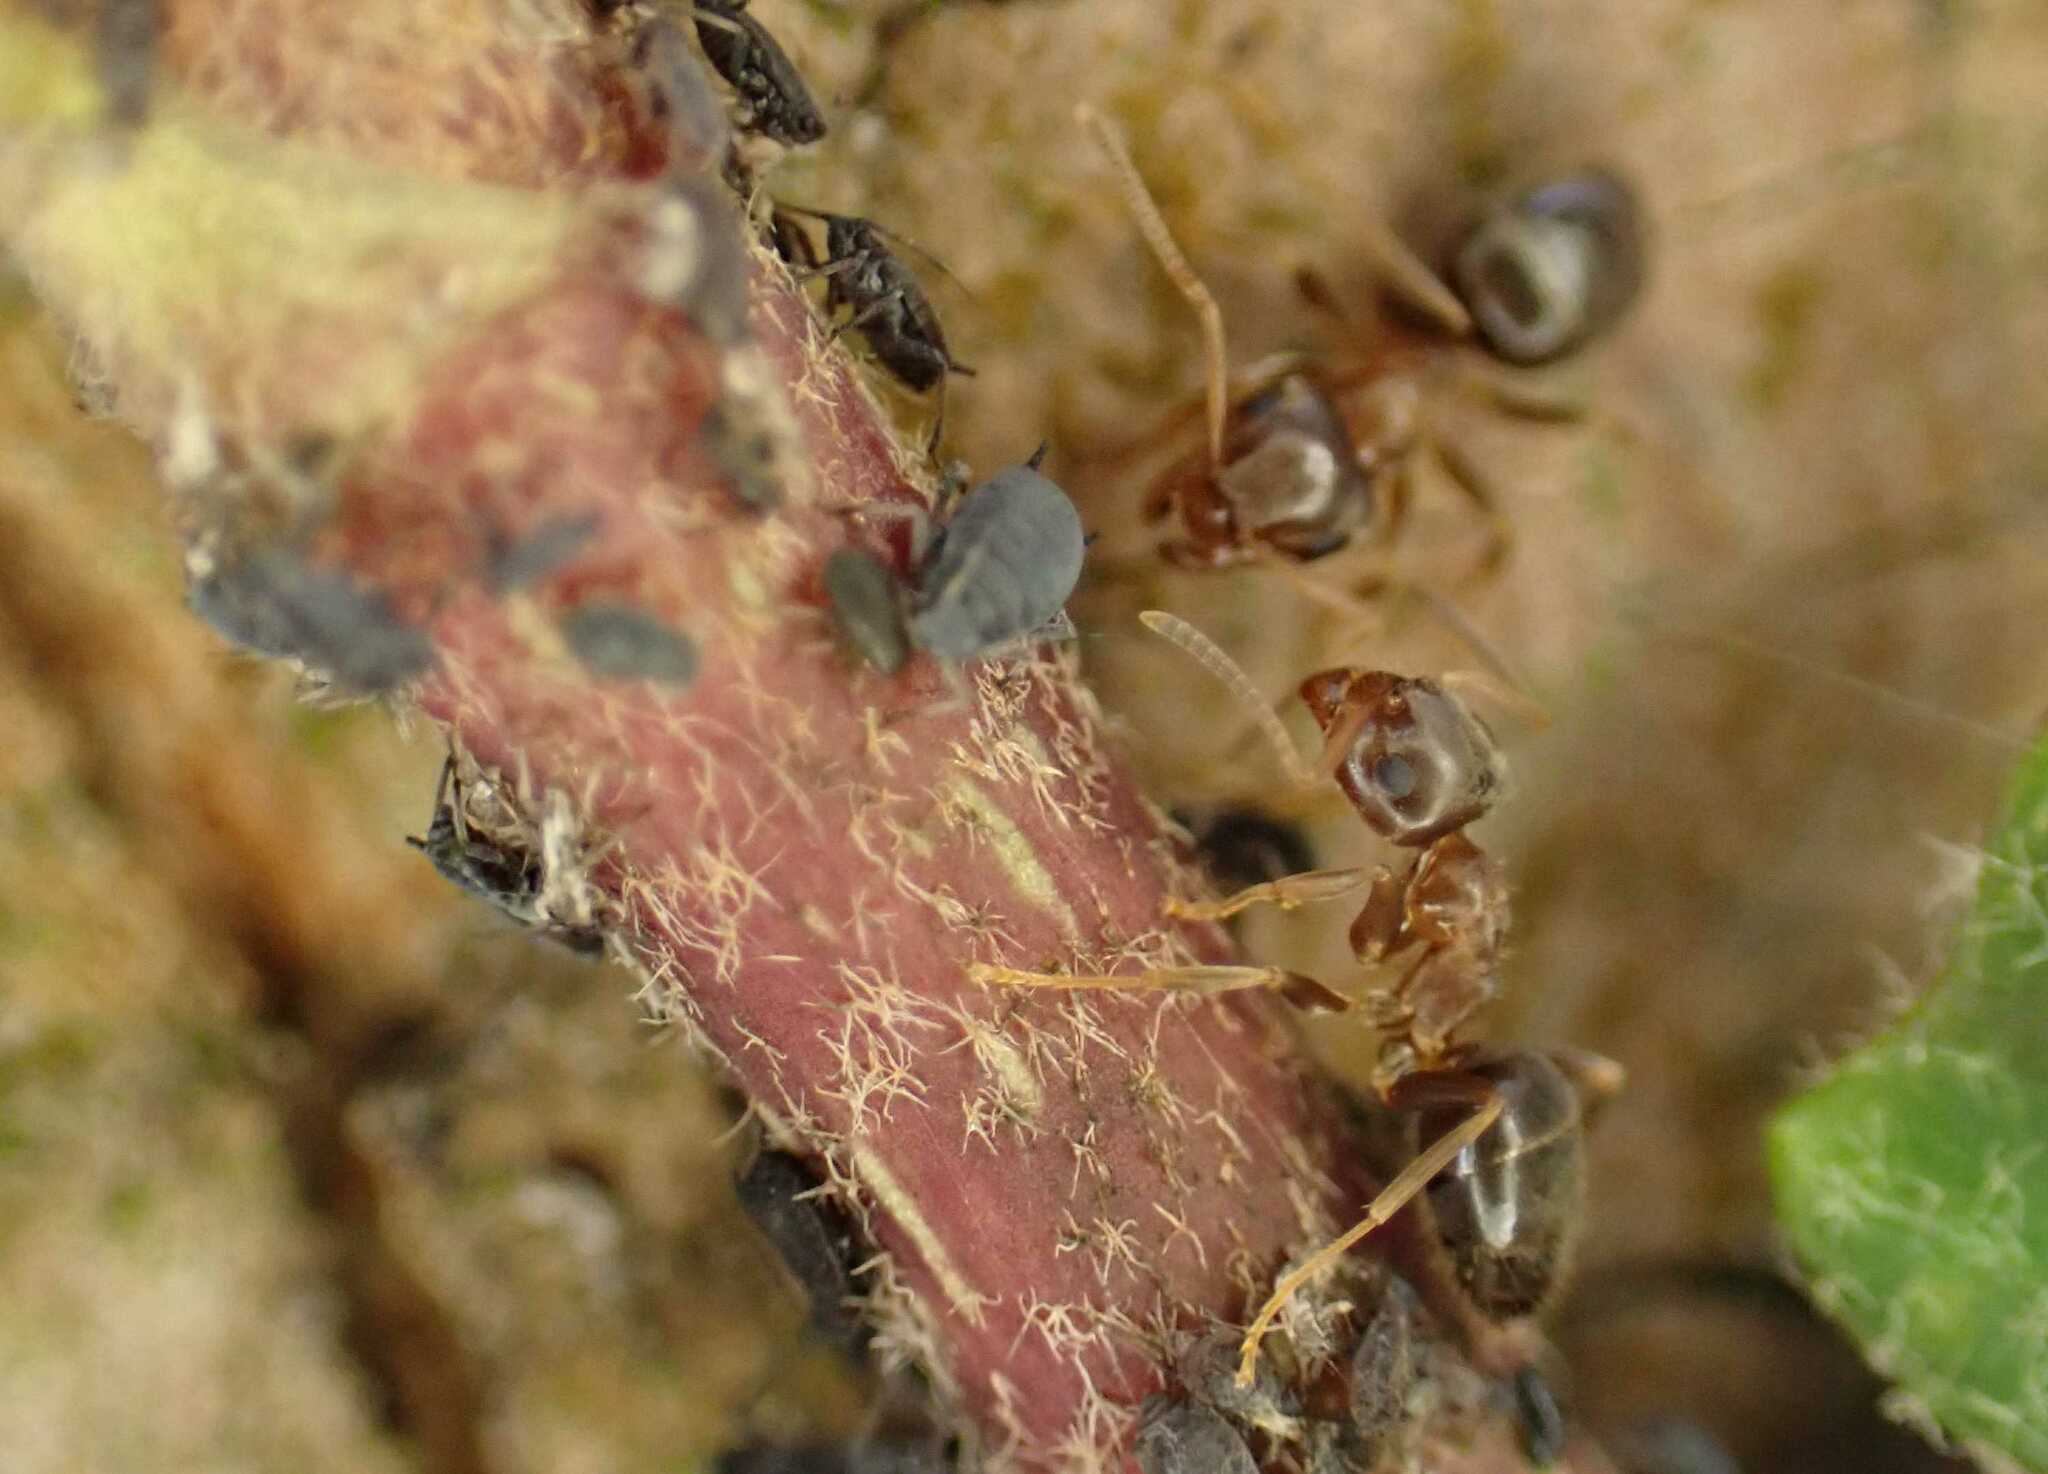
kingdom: Animalia
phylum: Arthropoda
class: Insecta
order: Hymenoptera
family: Formicidae
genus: Lasius
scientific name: Lasius brunneus
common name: Brown ant
